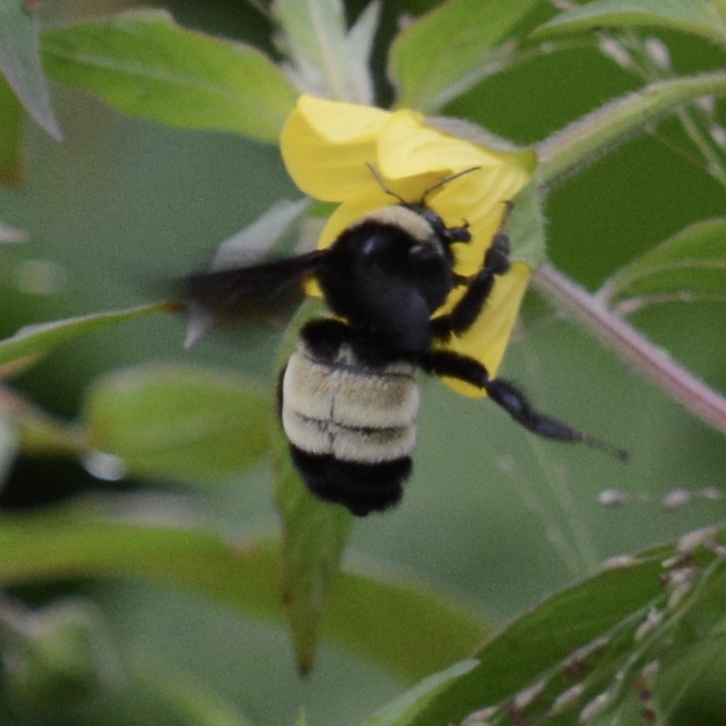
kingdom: Animalia
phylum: Arthropoda
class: Insecta
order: Hymenoptera
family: Apidae
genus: Bombus
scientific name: Bombus pensylvanicus
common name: Bumble bee
